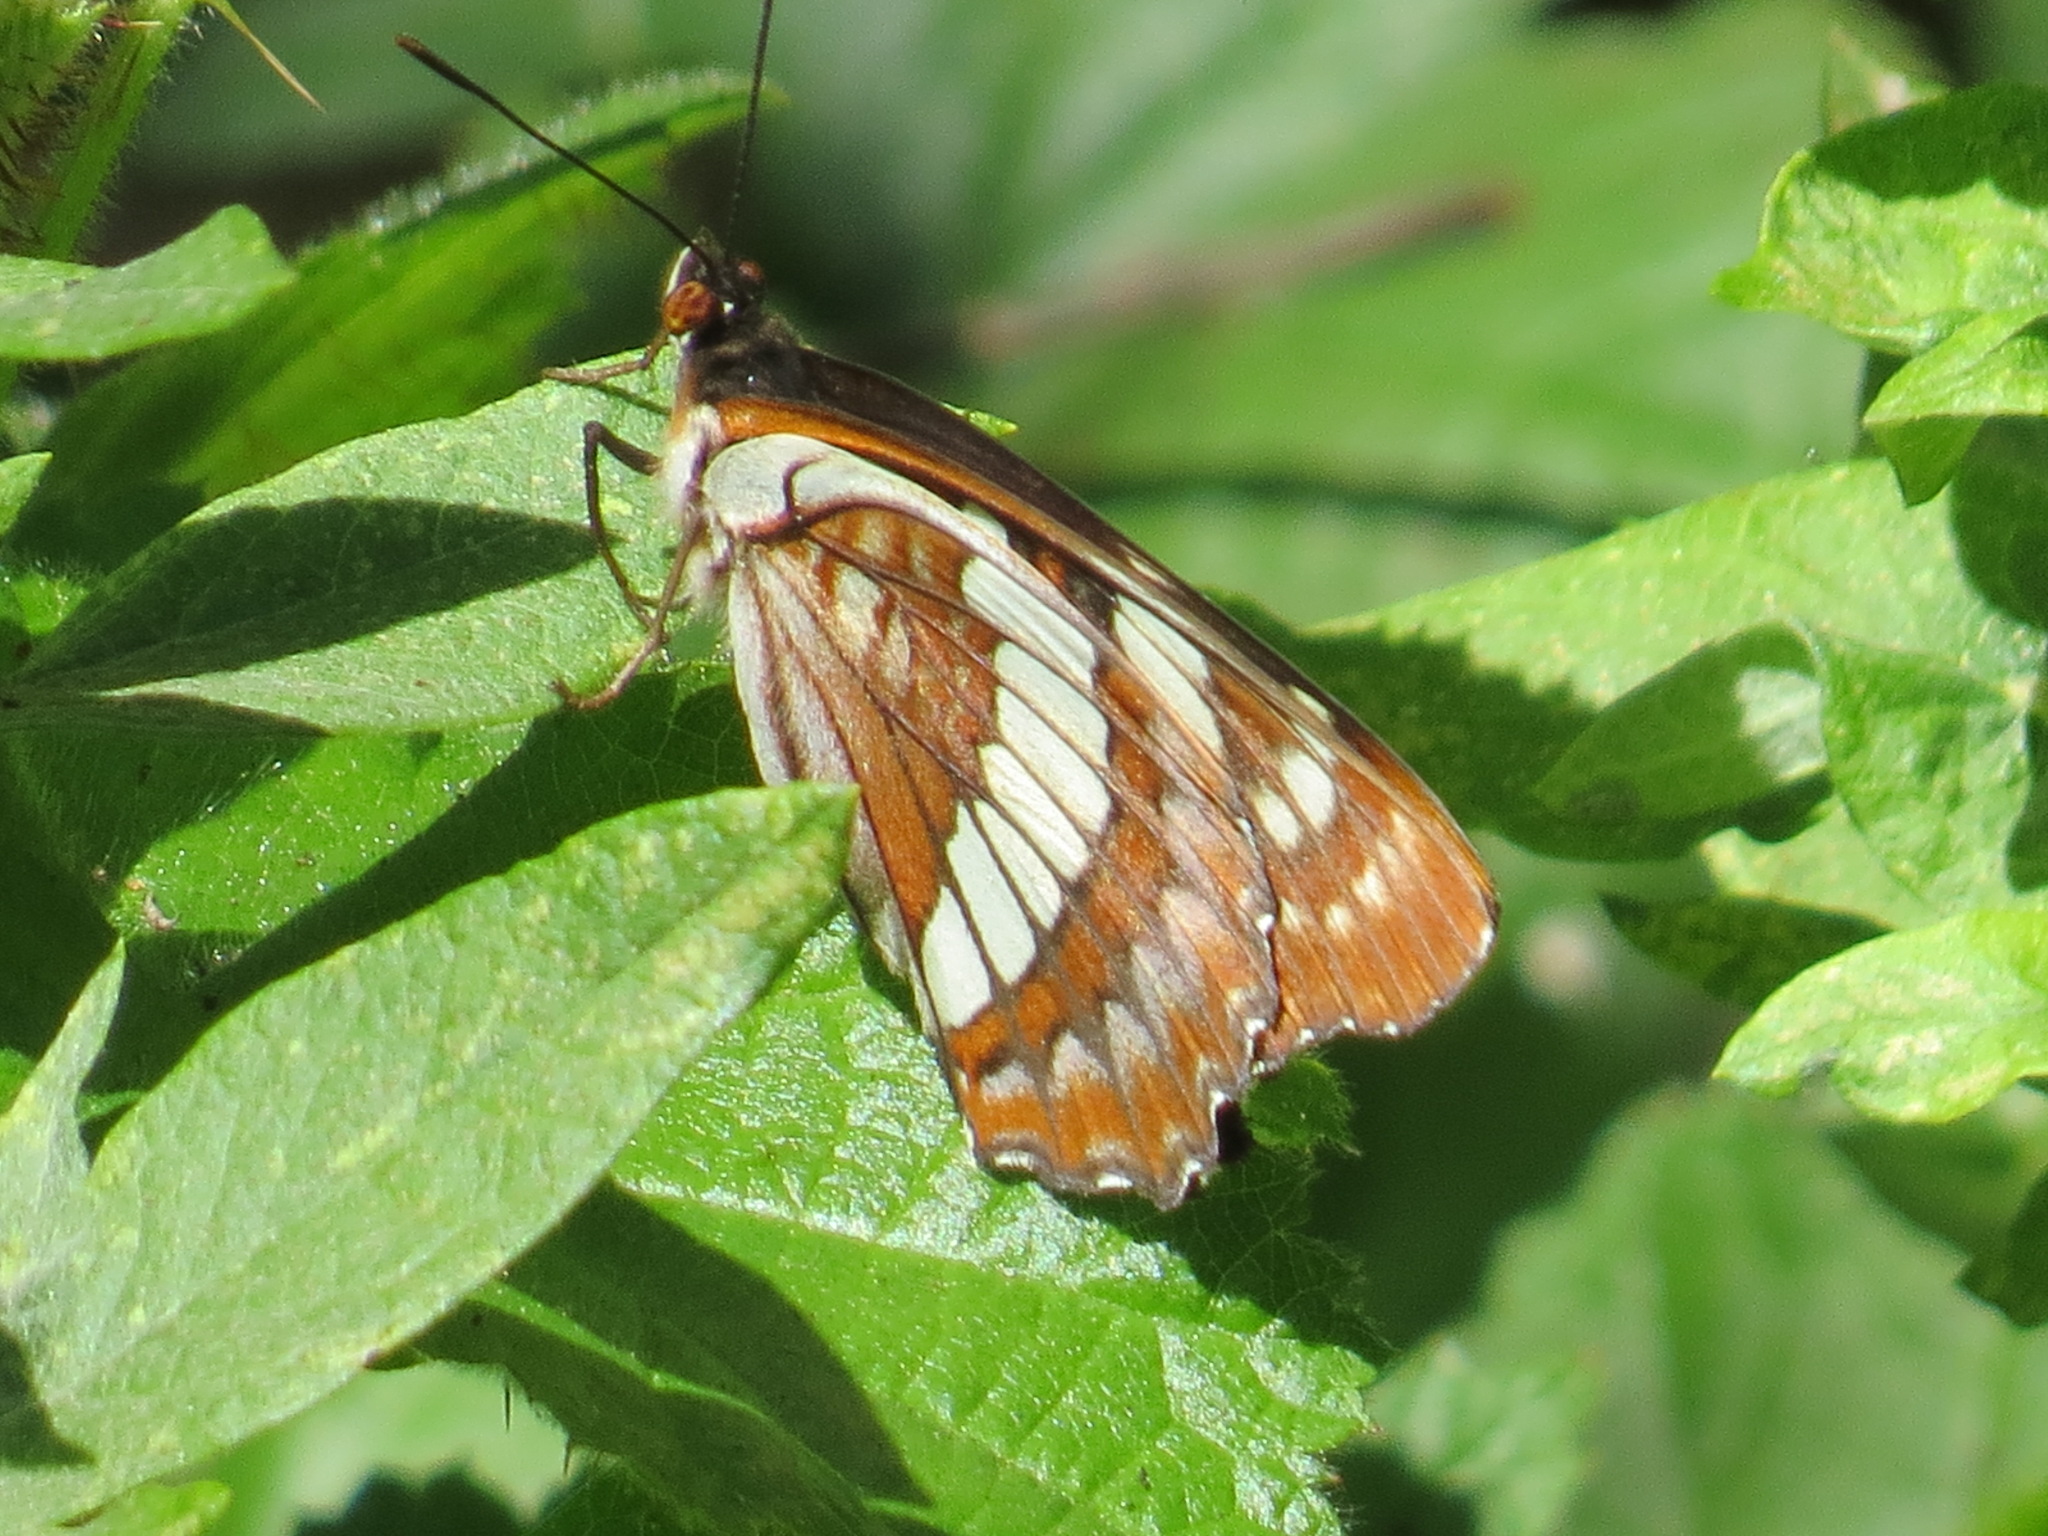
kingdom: Animalia
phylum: Arthropoda
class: Insecta
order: Lepidoptera
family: Nymphalidae
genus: Limenitis
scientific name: Limenitis lorquini
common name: Lorquin's admiral
